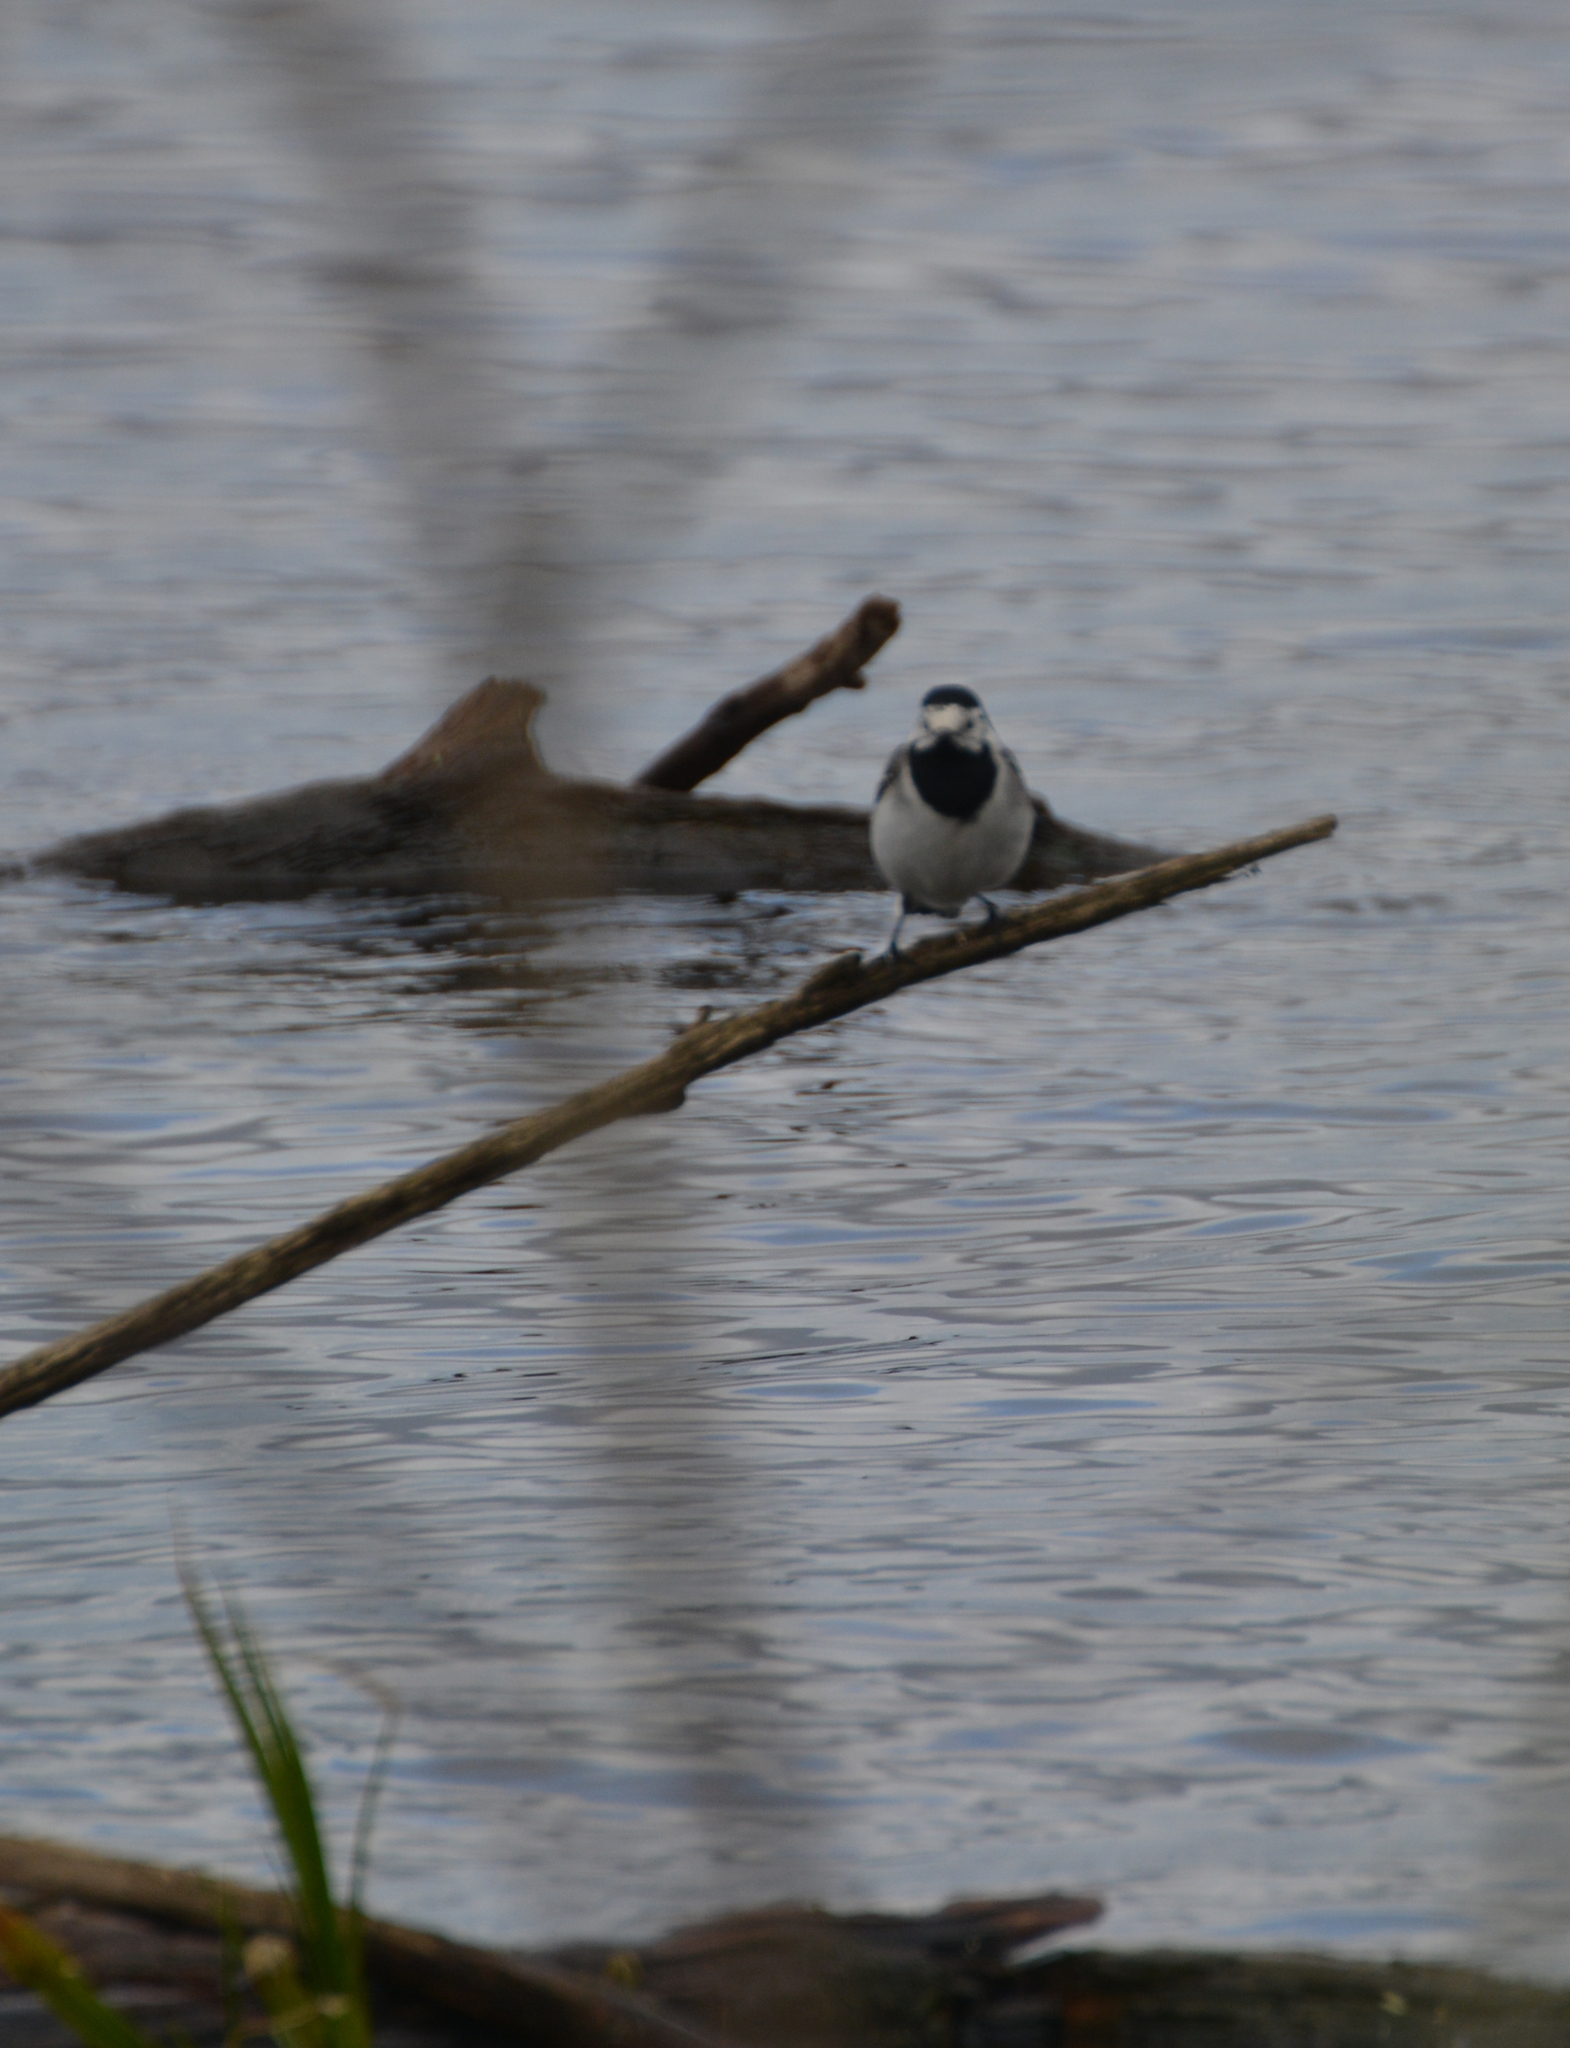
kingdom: Animalia
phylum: Chordata
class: Aves
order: Passeriformes
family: Motacillidae
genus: Motacilla
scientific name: Motacilla alba
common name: White wagtail
